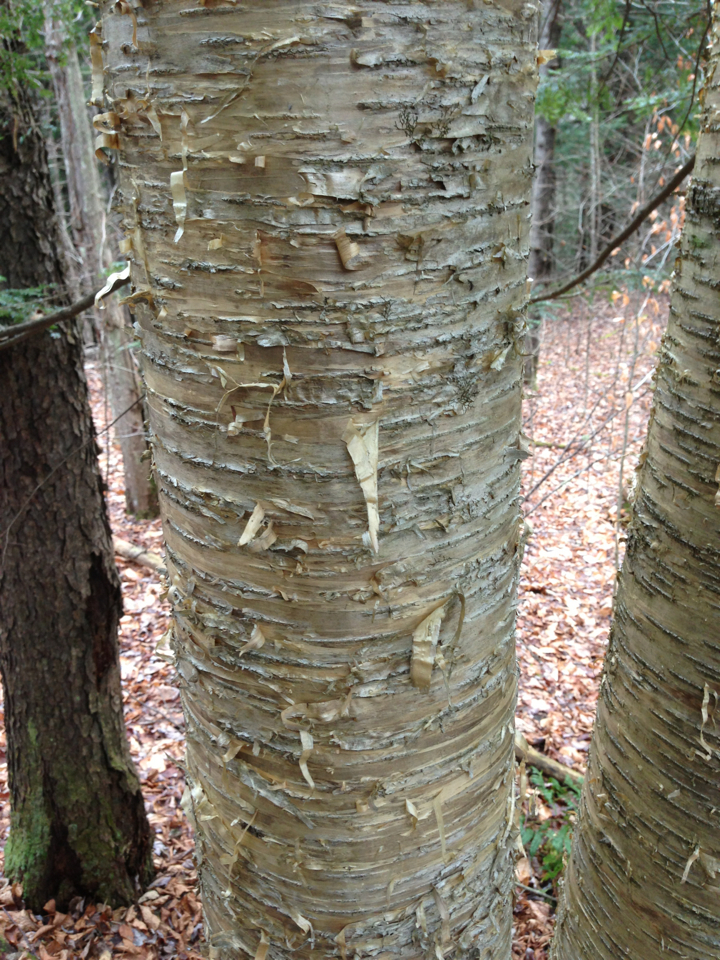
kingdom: Plantae
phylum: Tracheophyta
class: Magnoliopsida
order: Fagales
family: Betulaceae
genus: Betula
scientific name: Betula alleghaniensis
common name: Yellow birch
